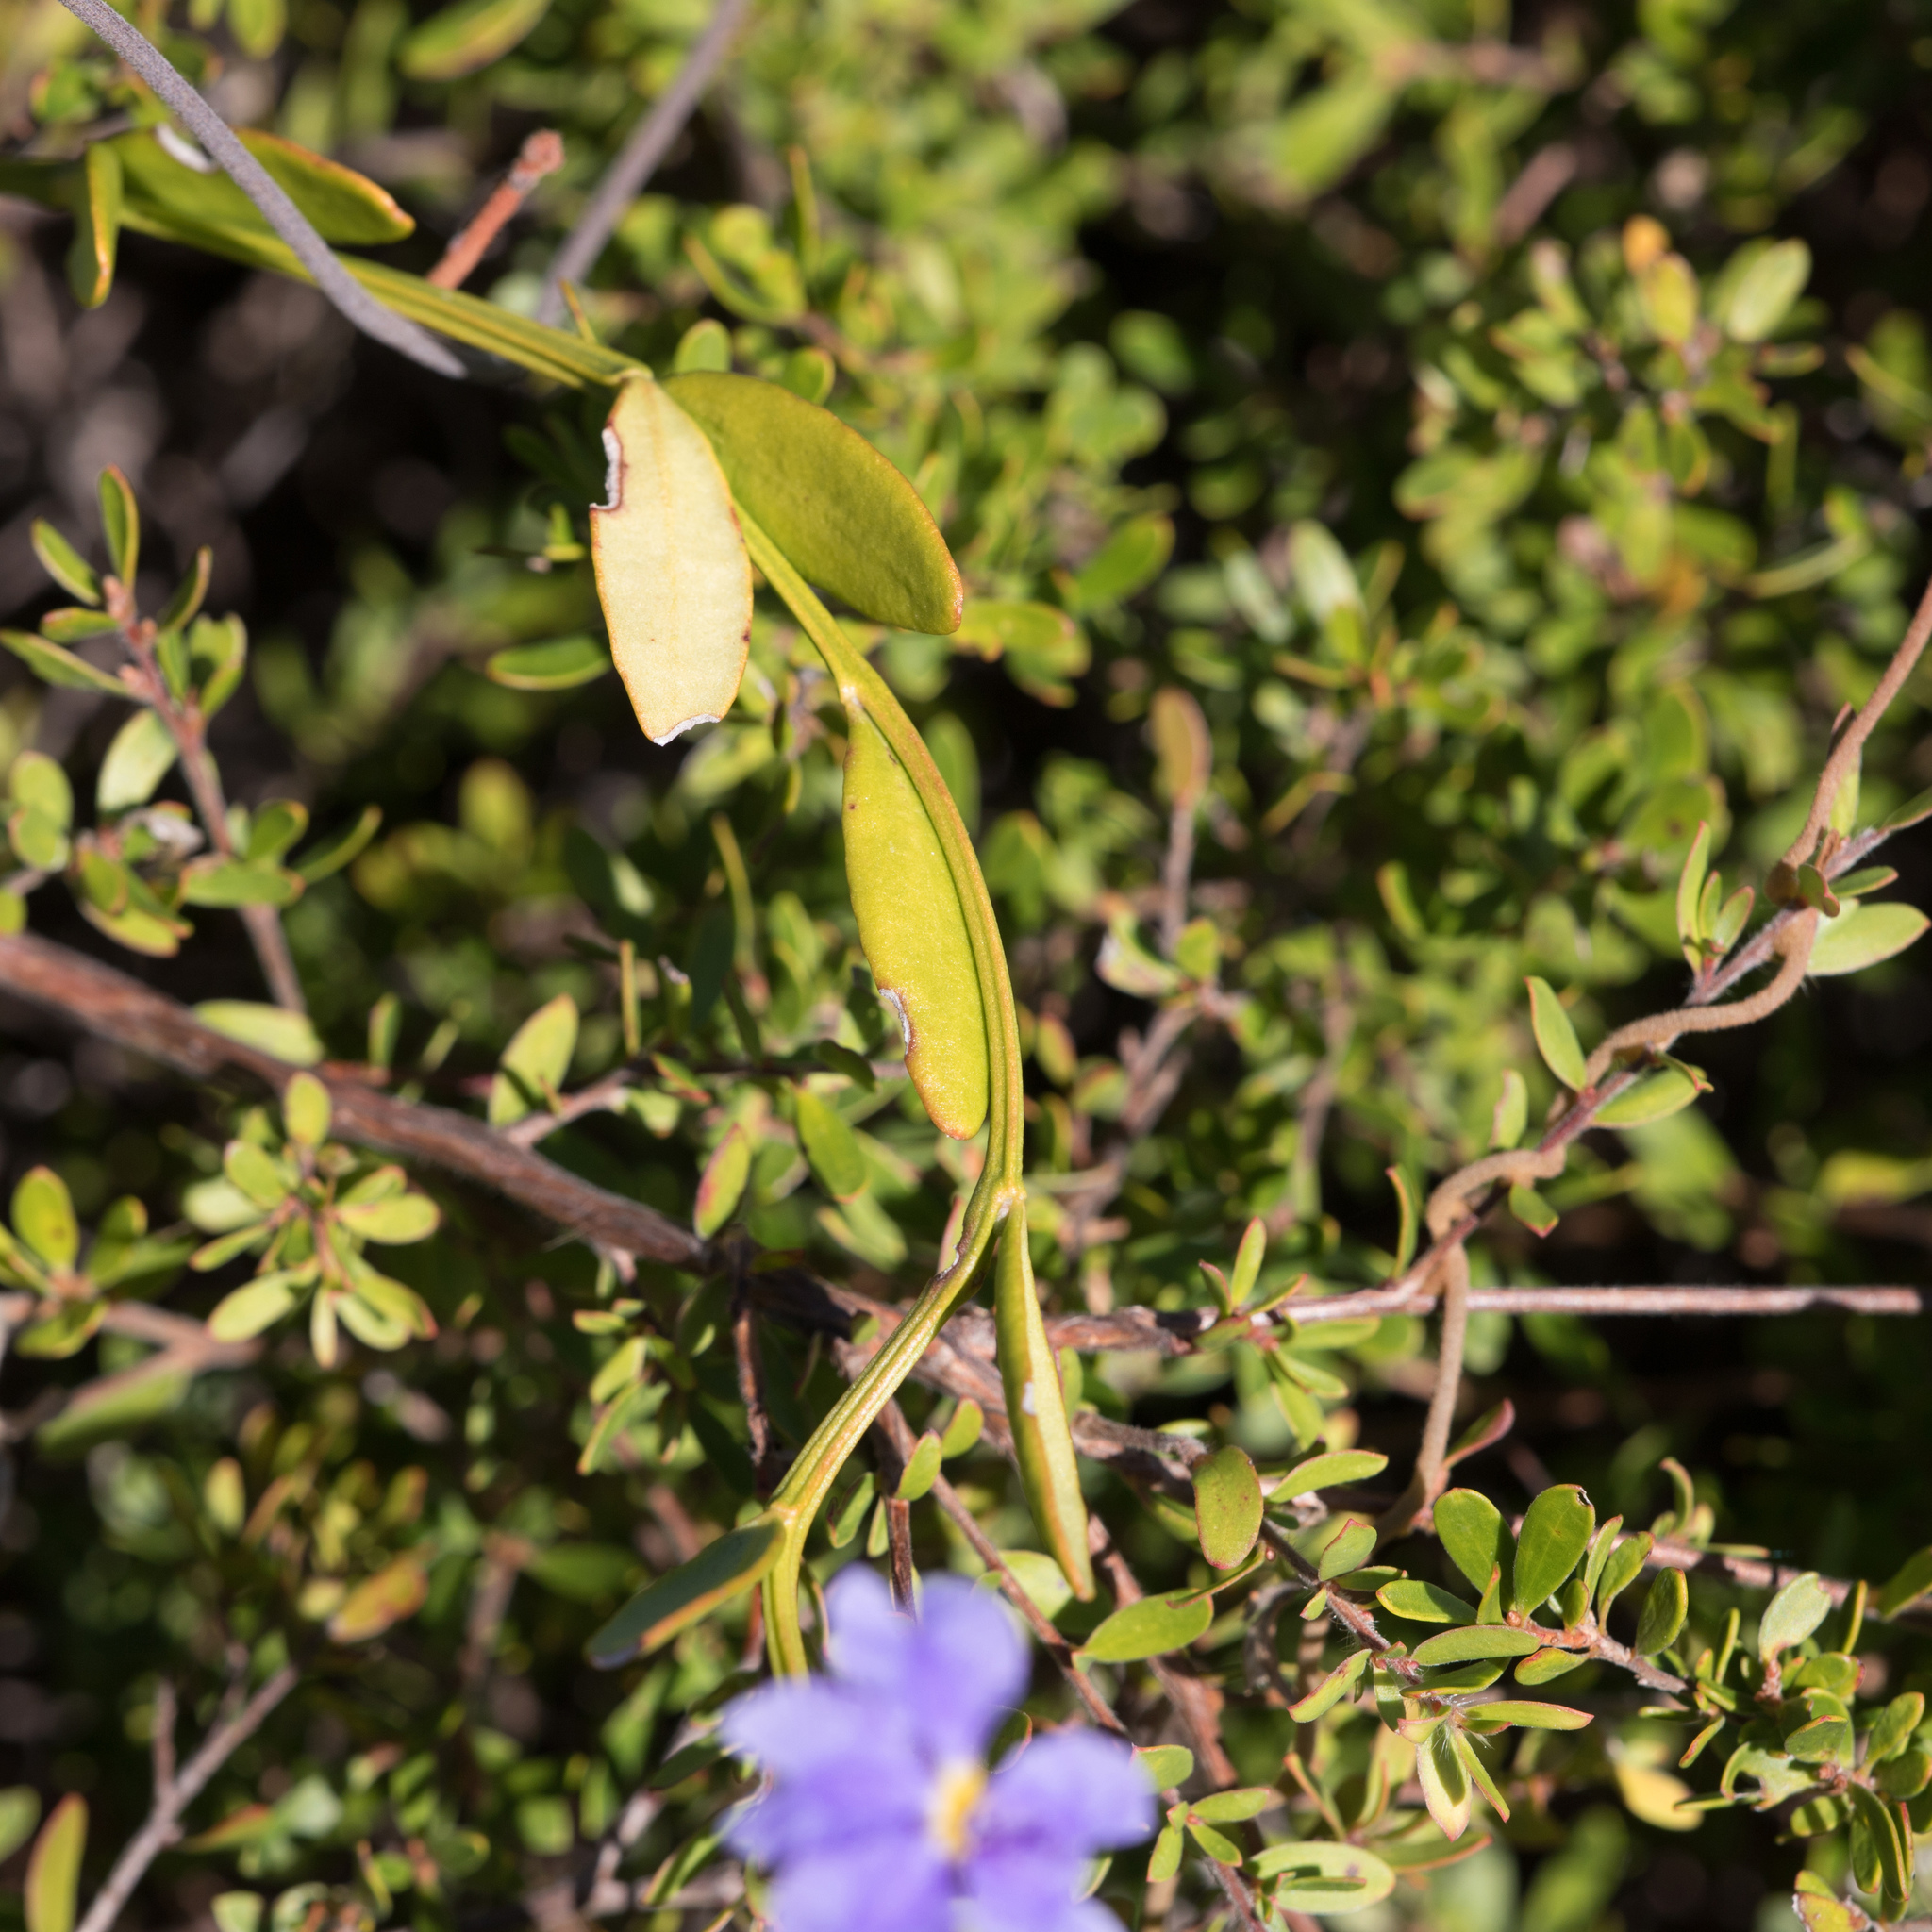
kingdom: Plantae
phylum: Tracheophyta
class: Magnoliopsida
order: Asterales
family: Goodeniaceae
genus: Dampiera
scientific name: Dampiera stricta
